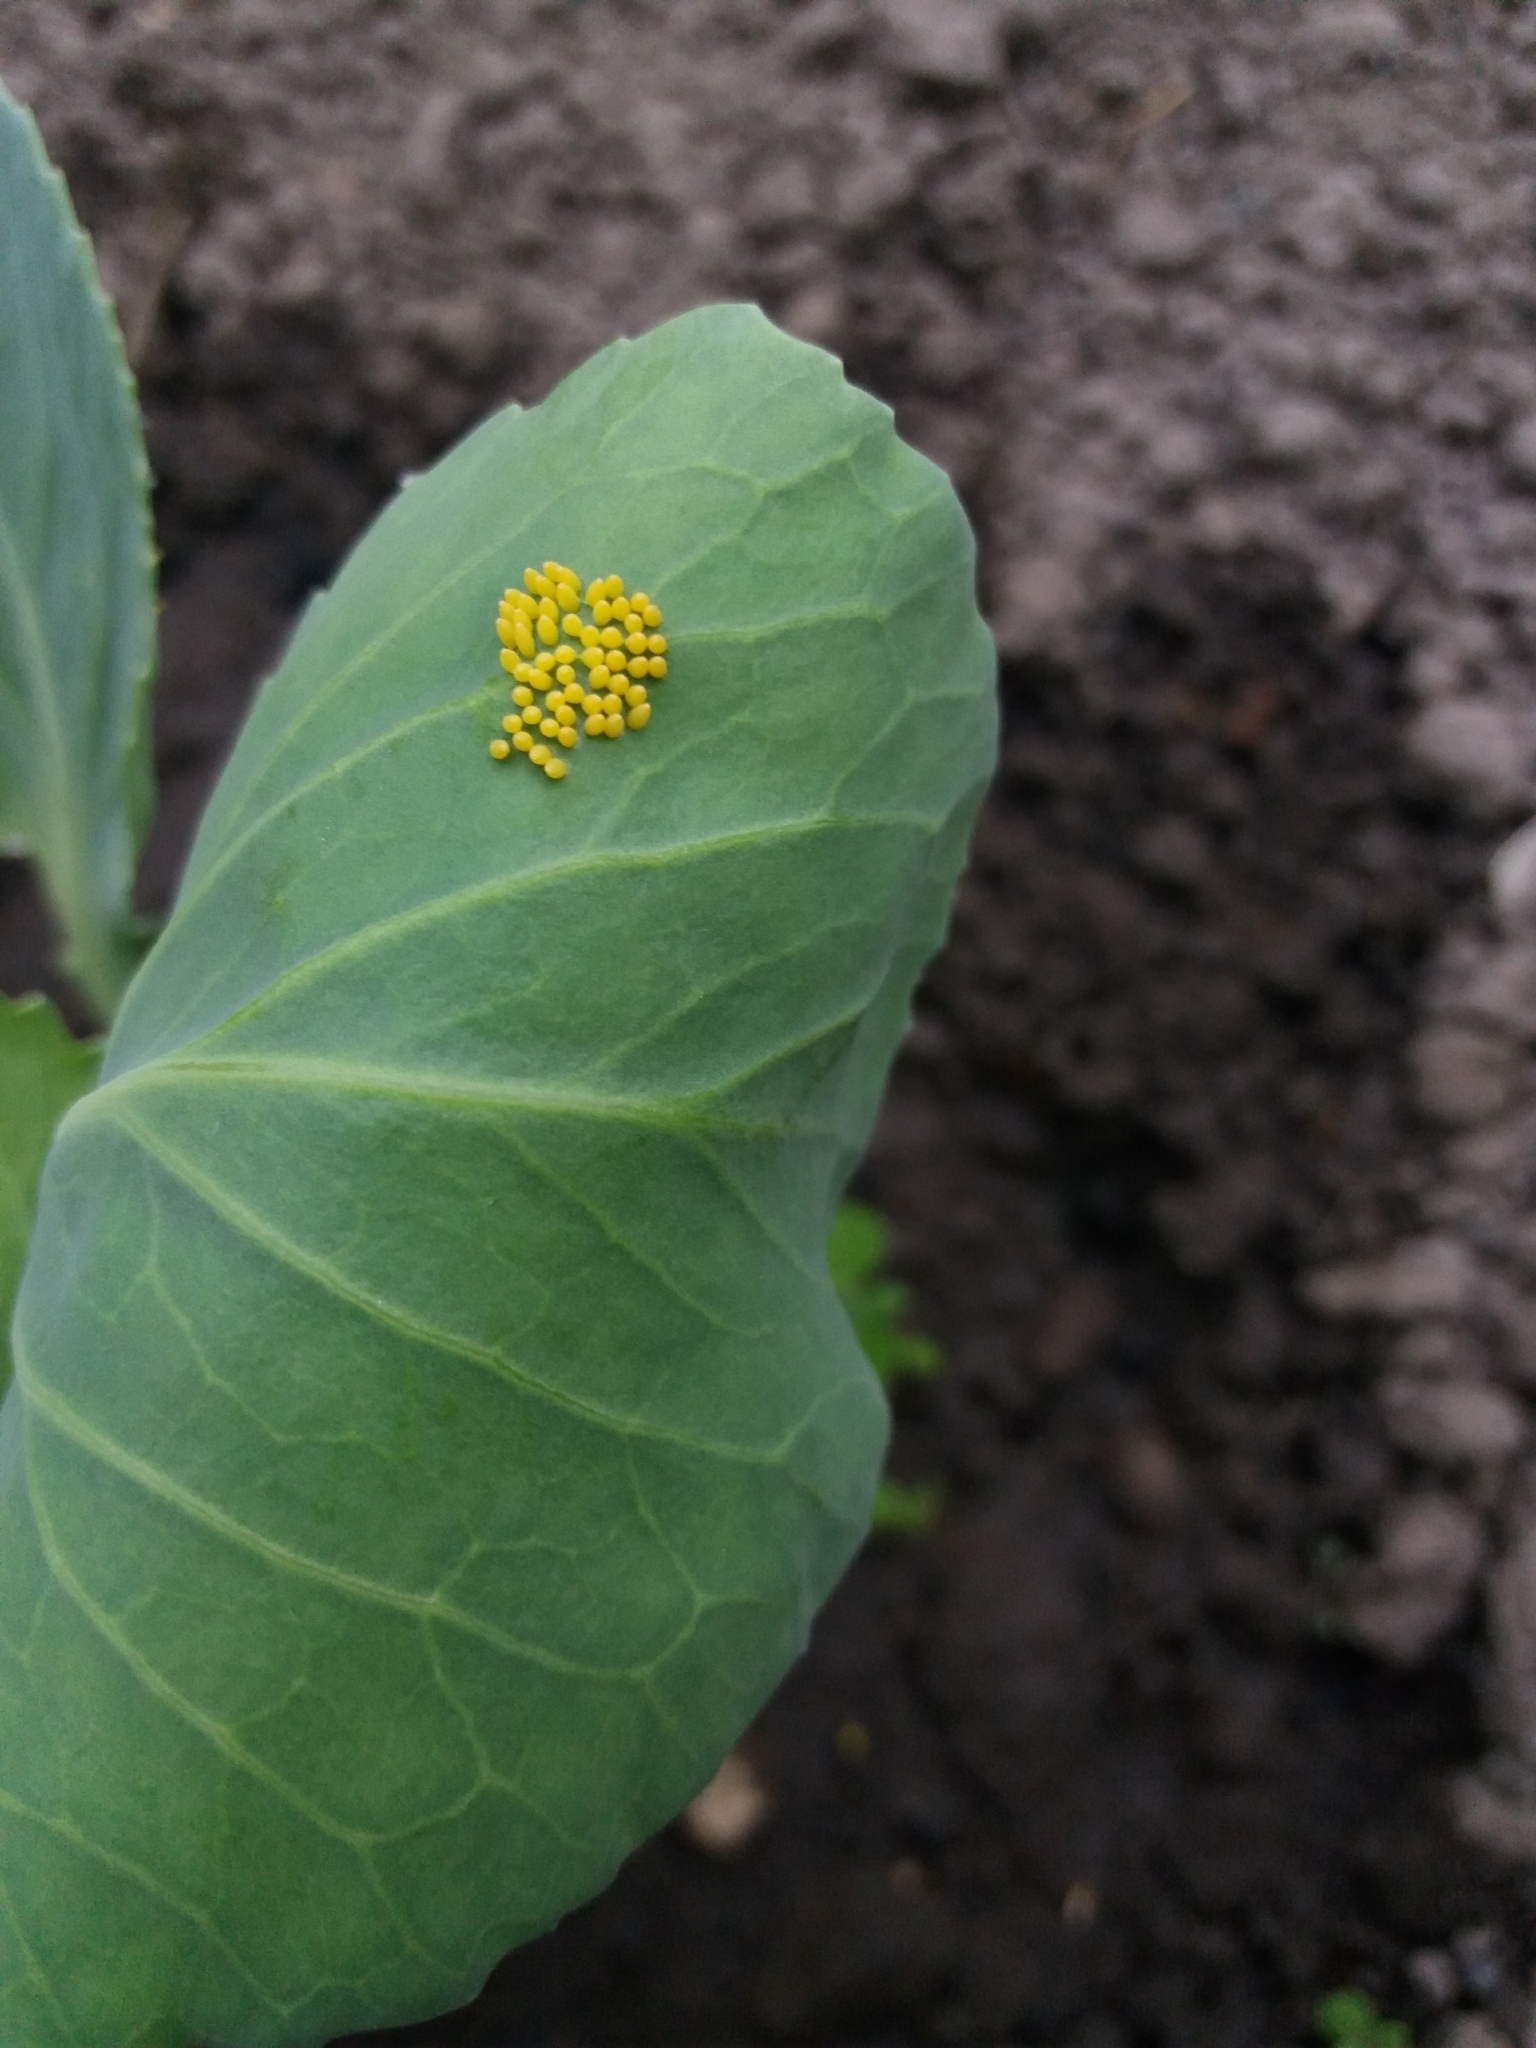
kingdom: Animalia
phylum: Arthropoda
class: Insecta
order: Lepidoptera
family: Pieridae
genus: Pieris
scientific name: Pieris brassicae
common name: Large white
